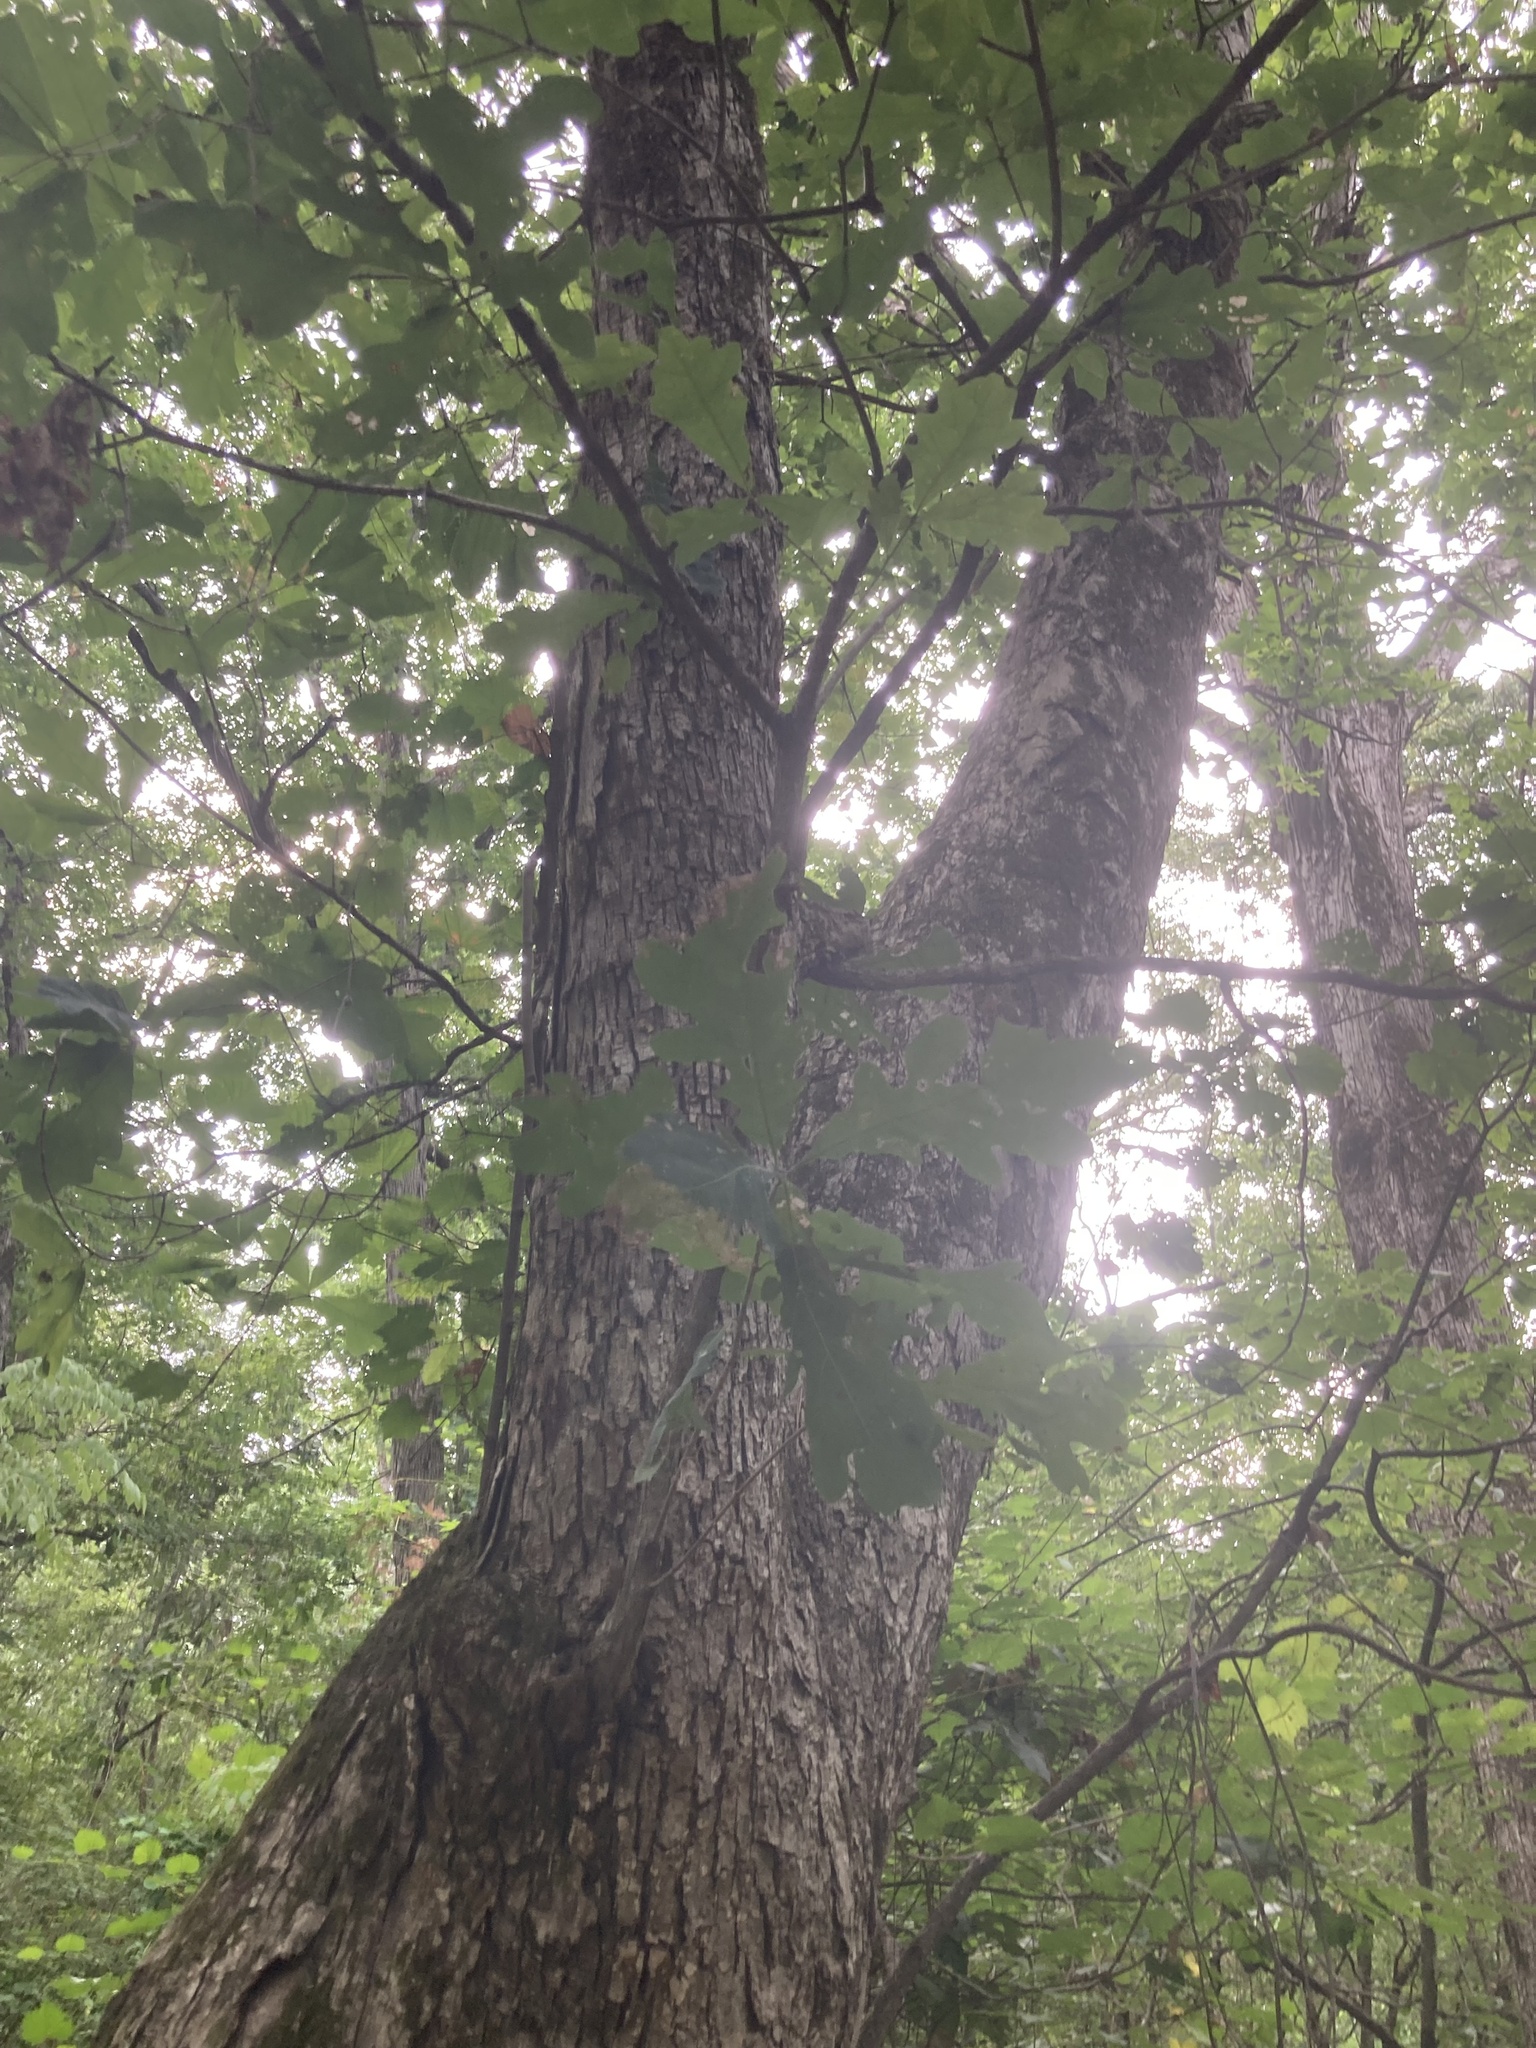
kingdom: Plantae
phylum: Tracheophyta
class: Magnoliopsida
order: Fagales
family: Fagaceae
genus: Quercus
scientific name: Quercus alba
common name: White oak
